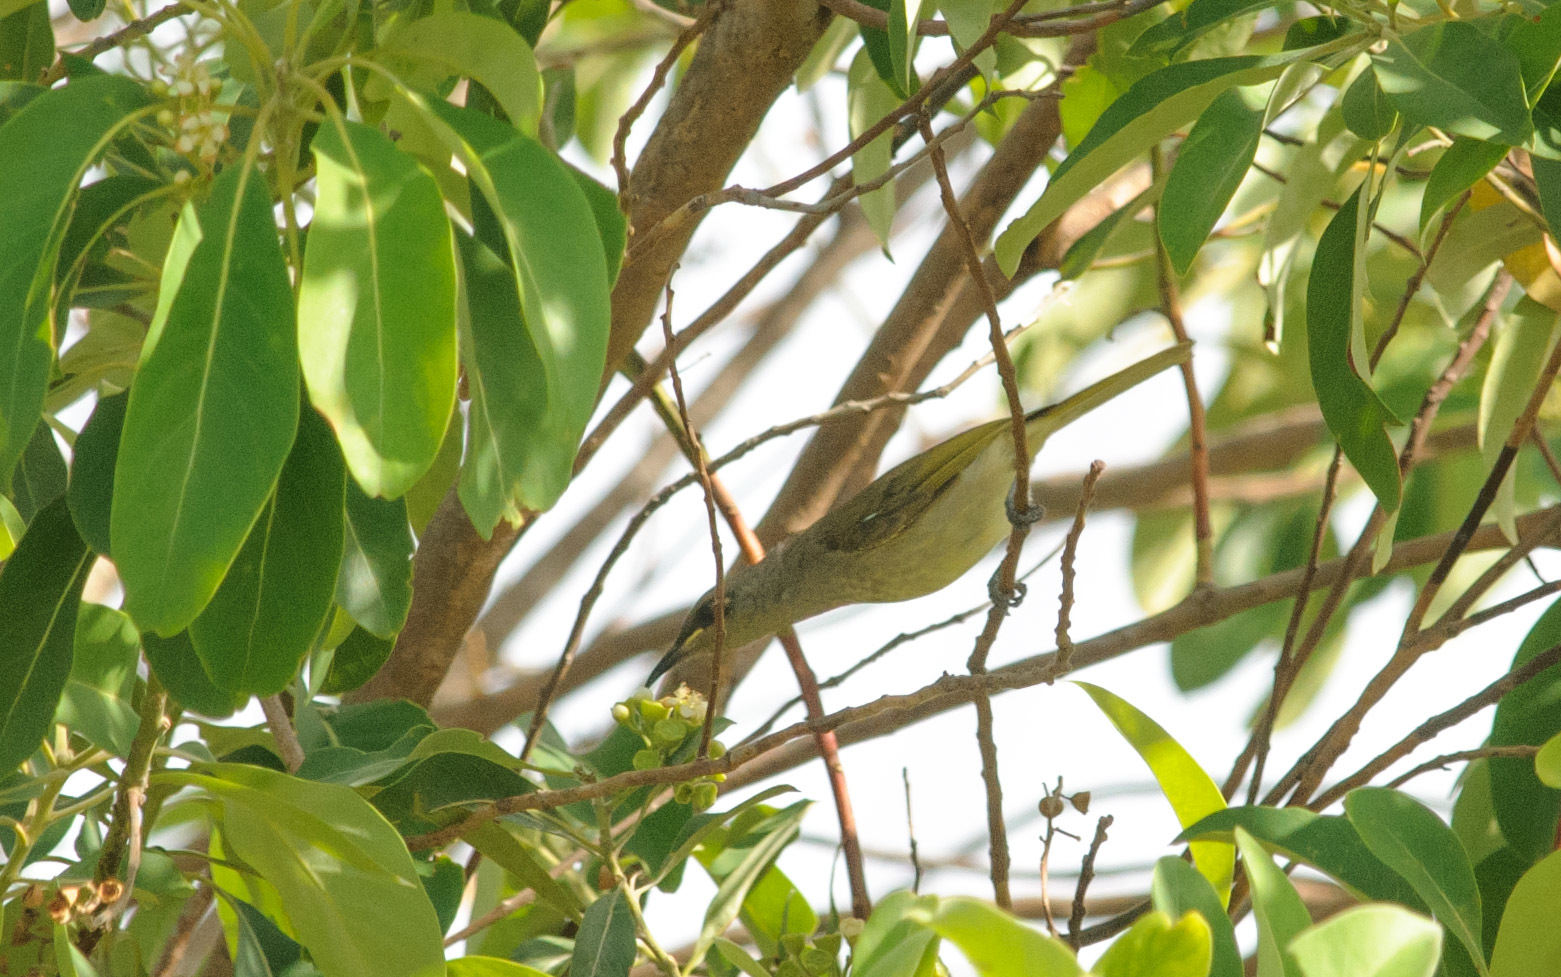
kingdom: Animalia
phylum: Chordata
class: Aves
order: Passeriformes
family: Meliphagidae
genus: Lichmera
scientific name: Lichmera indistincta
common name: Brown honeyeater
